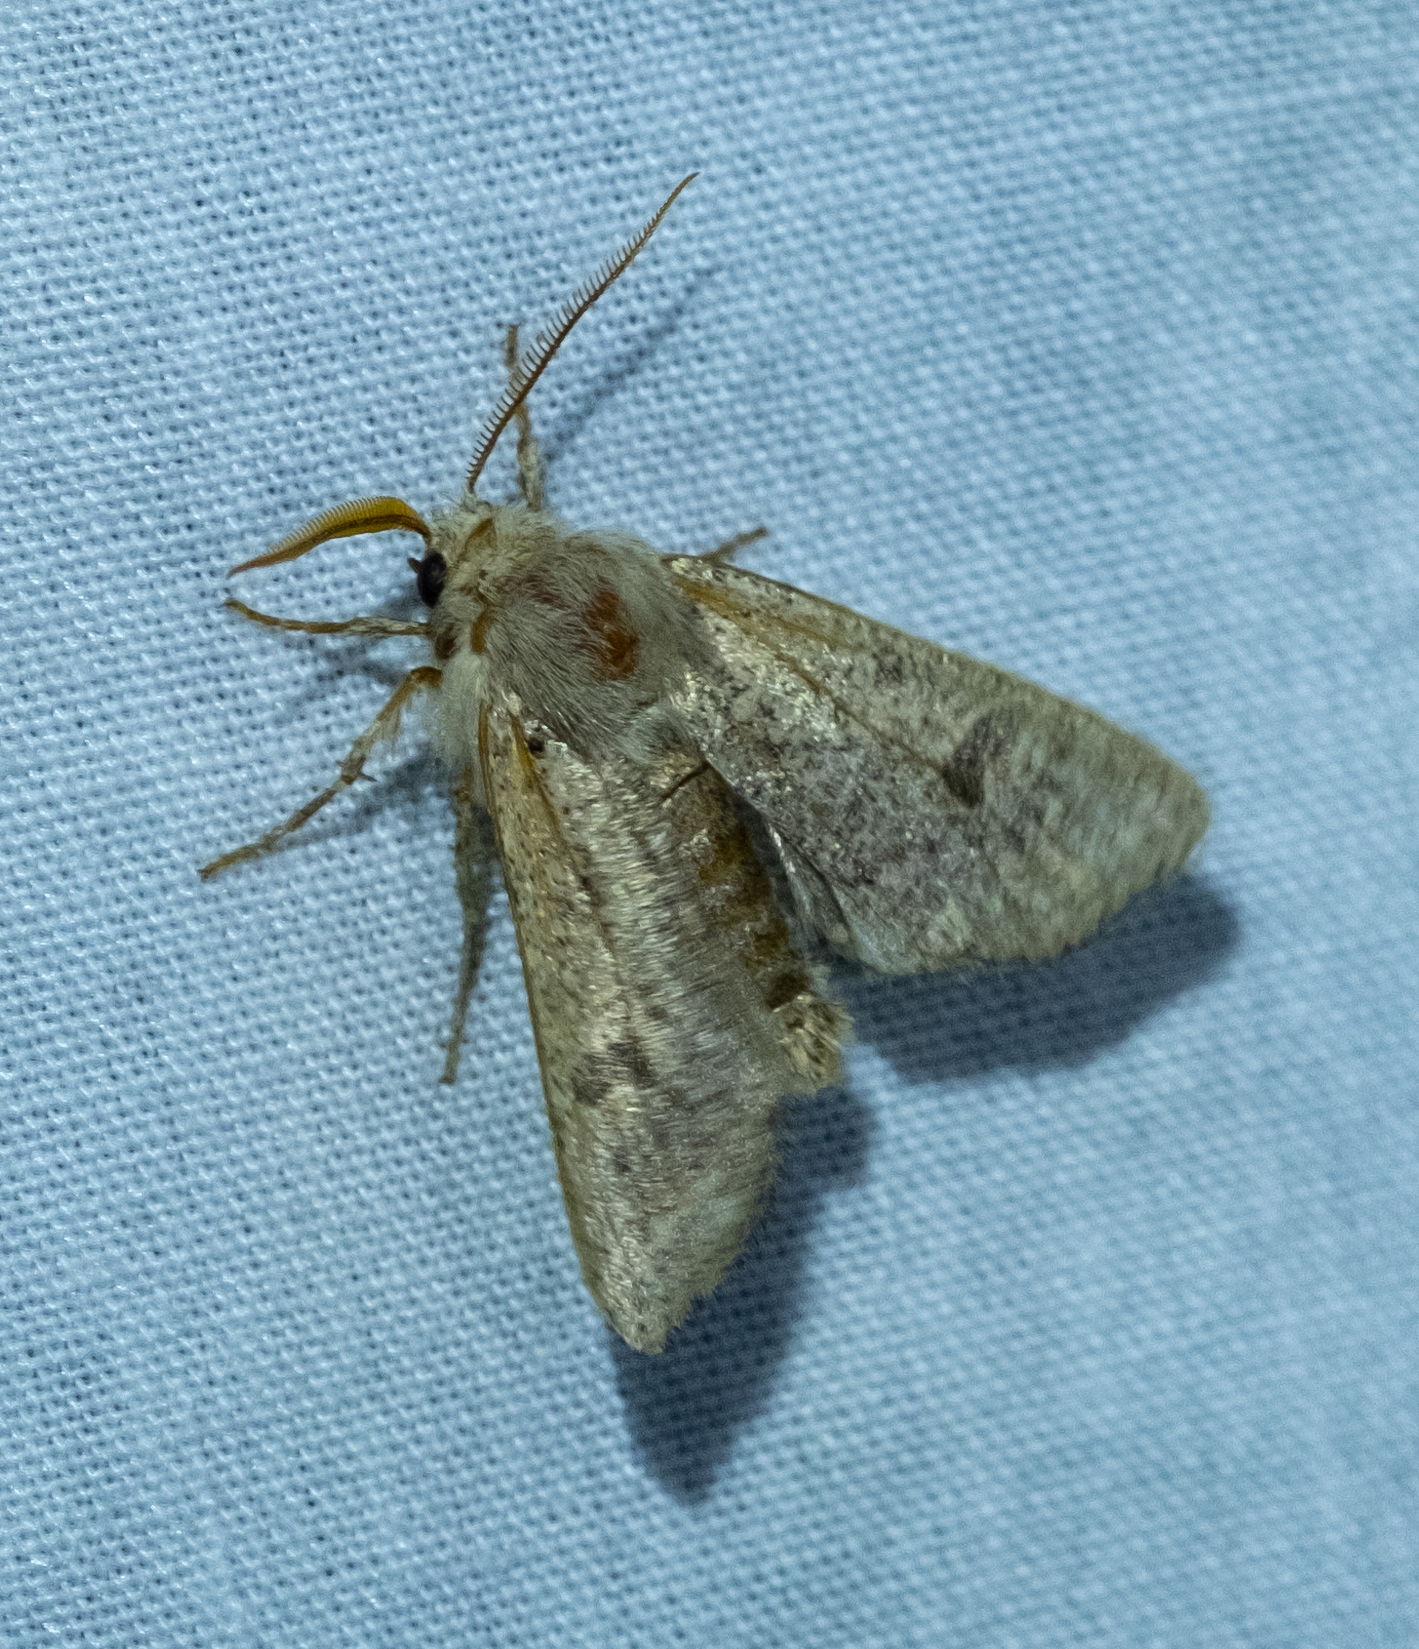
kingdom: Animalia
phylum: Arthropoda
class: Insecta
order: Lepidoptera
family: Noctuidae
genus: Orthosia
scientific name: Orthosia cruda
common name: Small quaker
